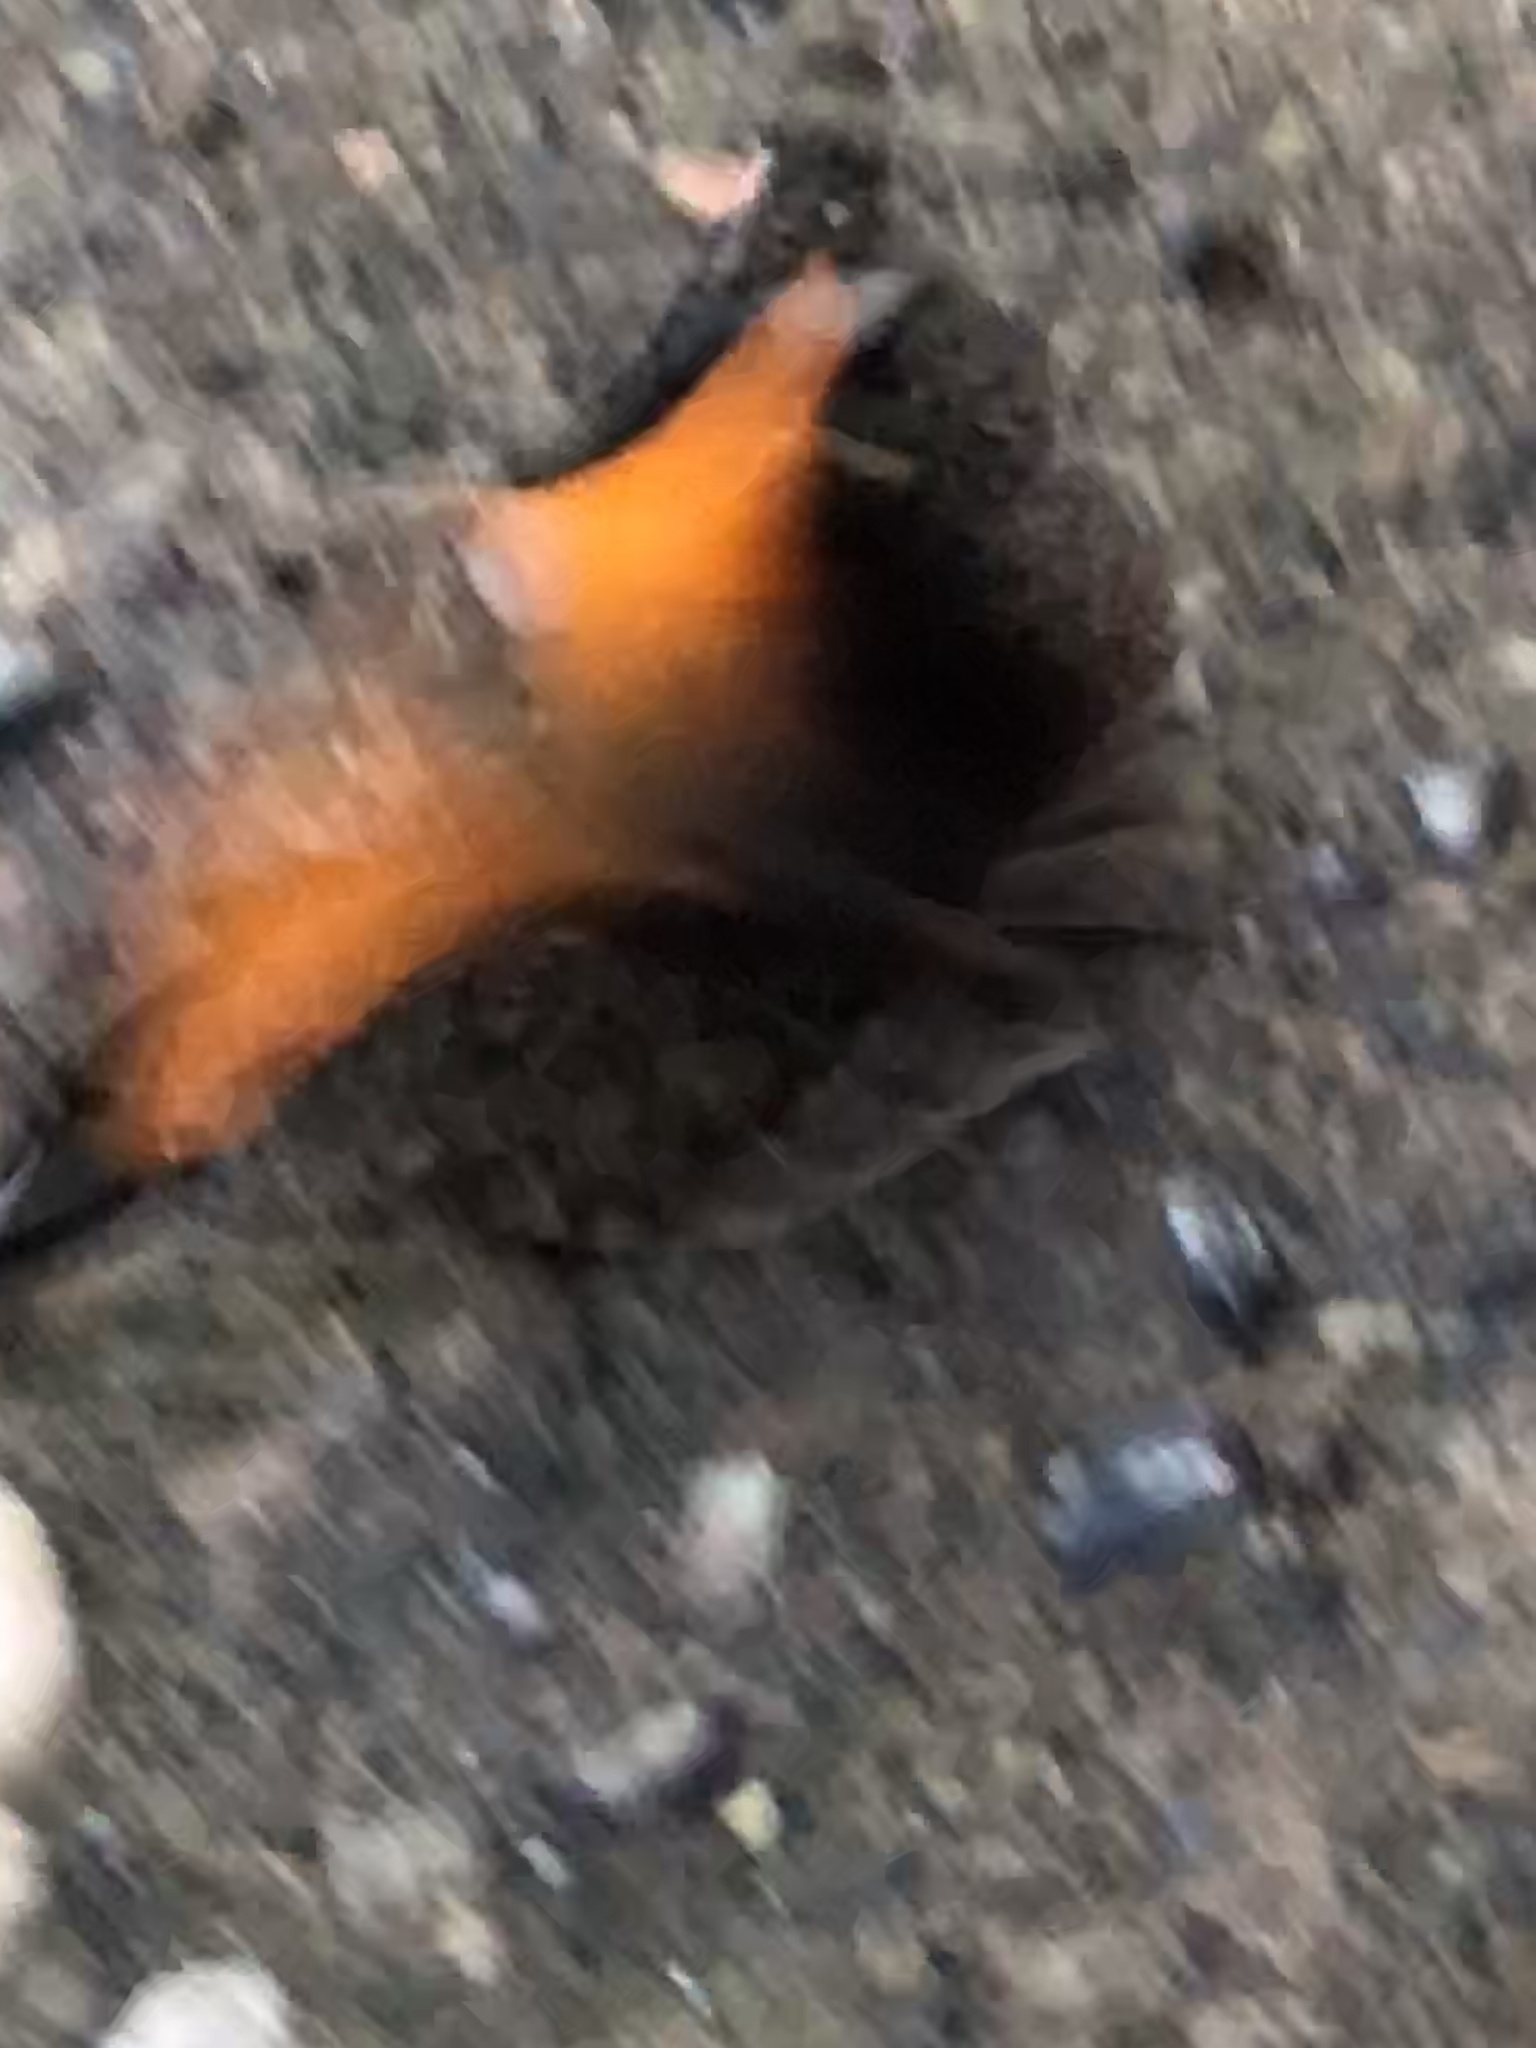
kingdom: Animalia
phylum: Arthropoda
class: Insecta
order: Lepidoptera
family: Nymphalidae
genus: Historis
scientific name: Historis odius
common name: Orion cecropian
